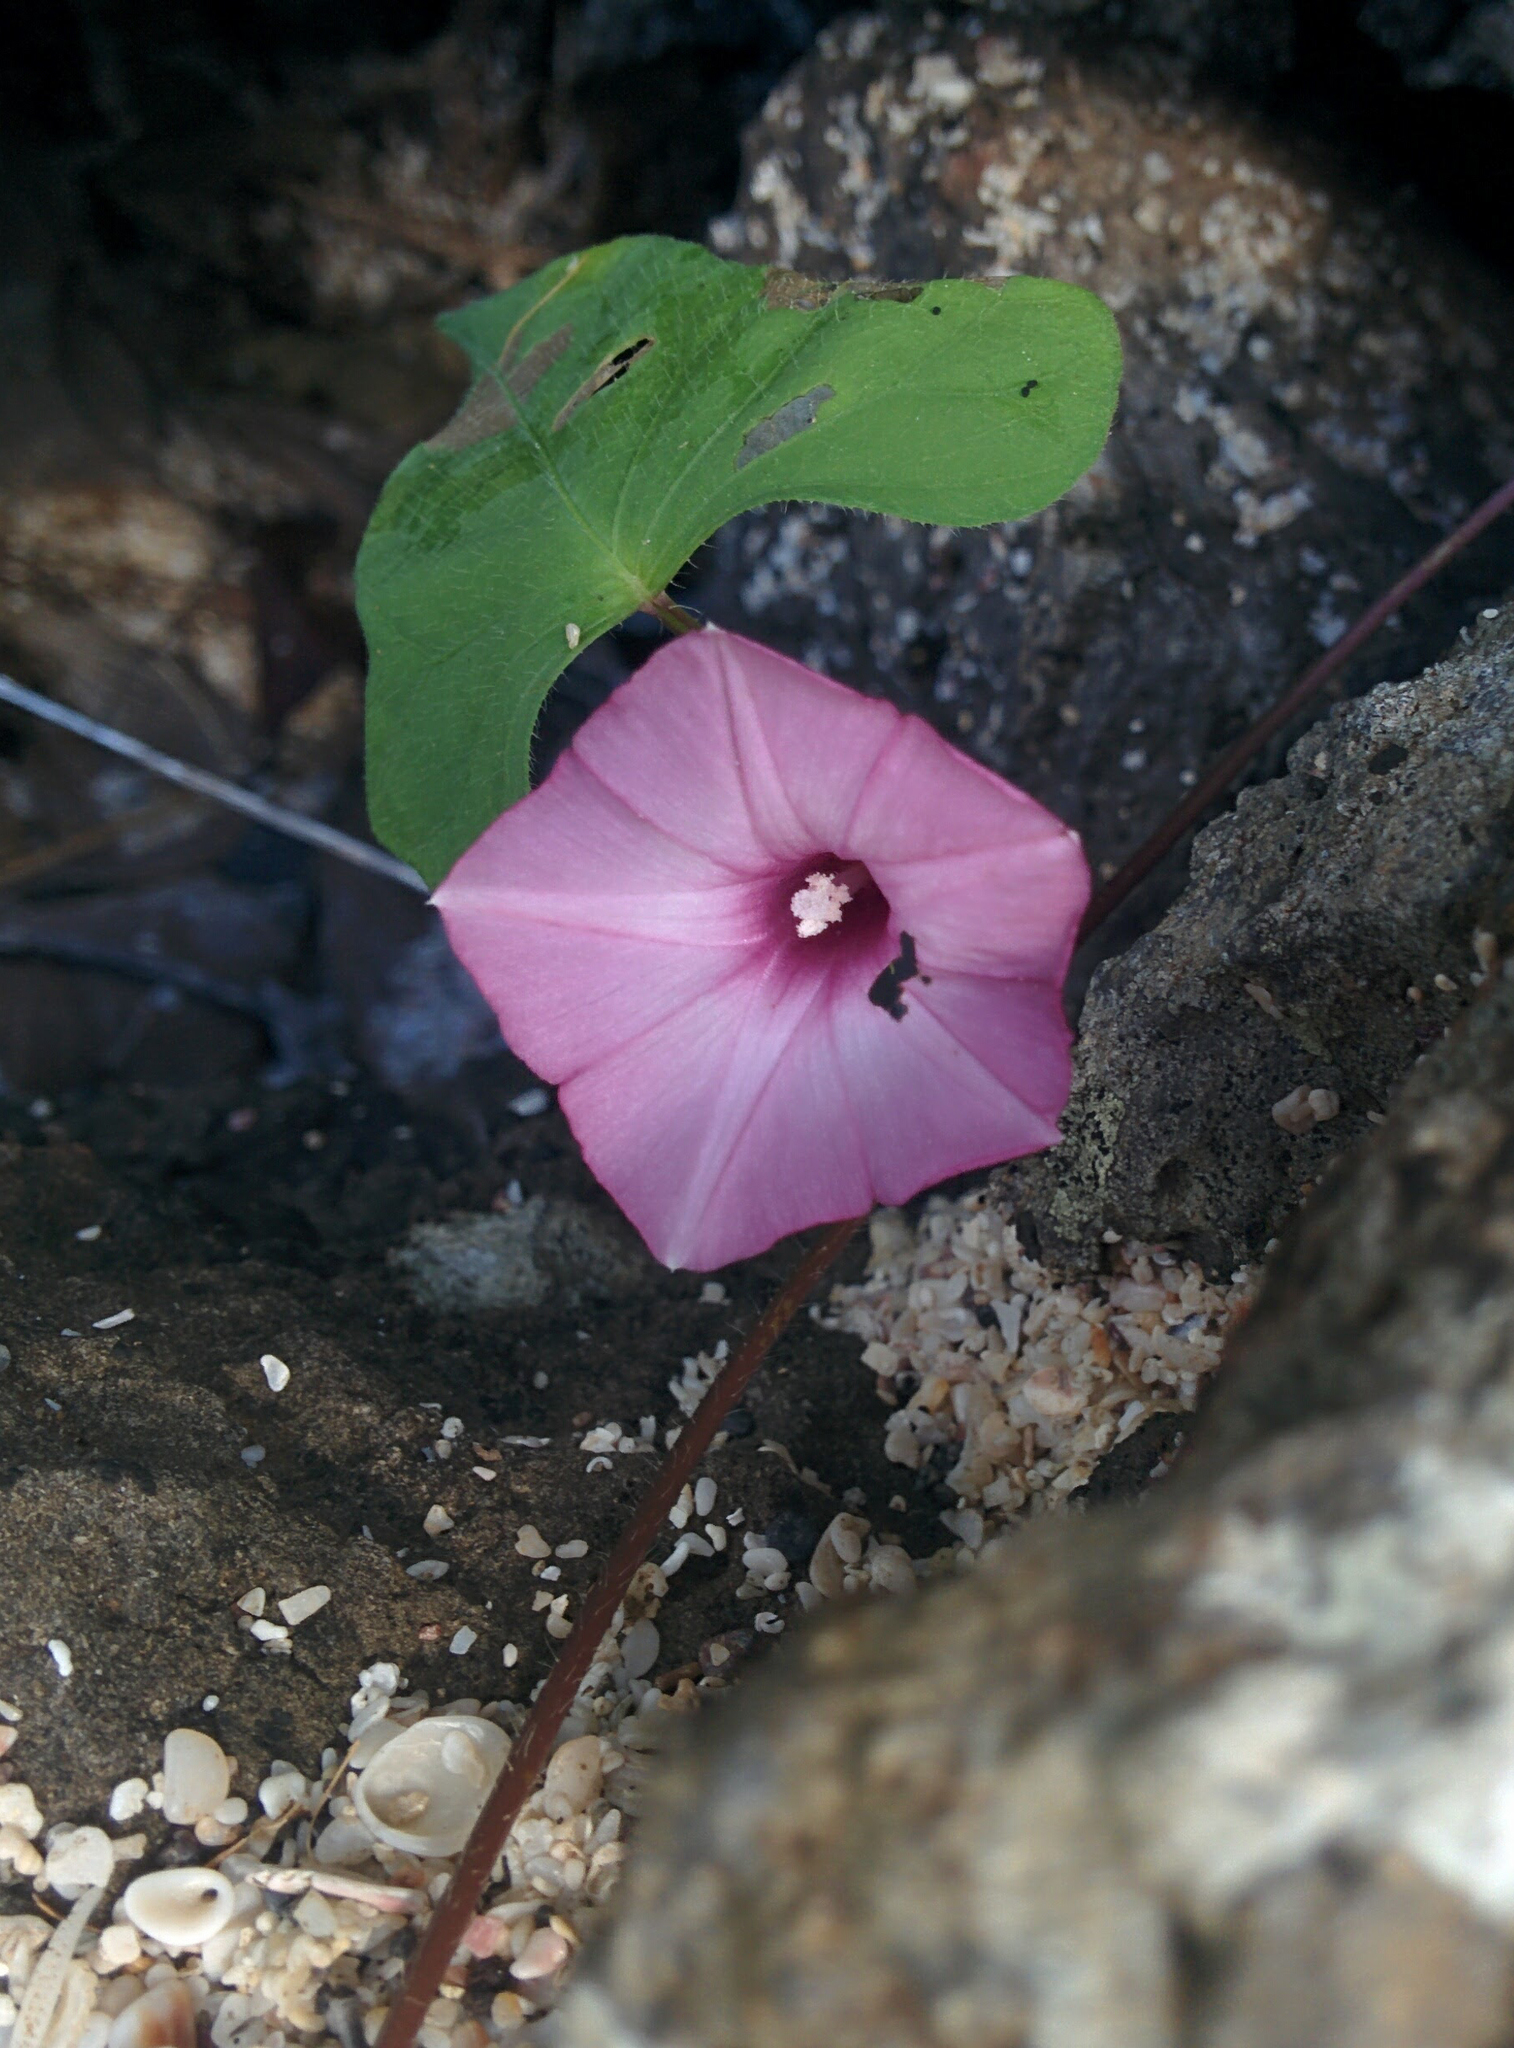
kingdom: Plantae
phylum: Tracheophyta
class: Magnoliopsida
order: Solanales
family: Convolvulaceae
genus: Ipomoea
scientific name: Ipomoea triloba
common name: Little-bell
